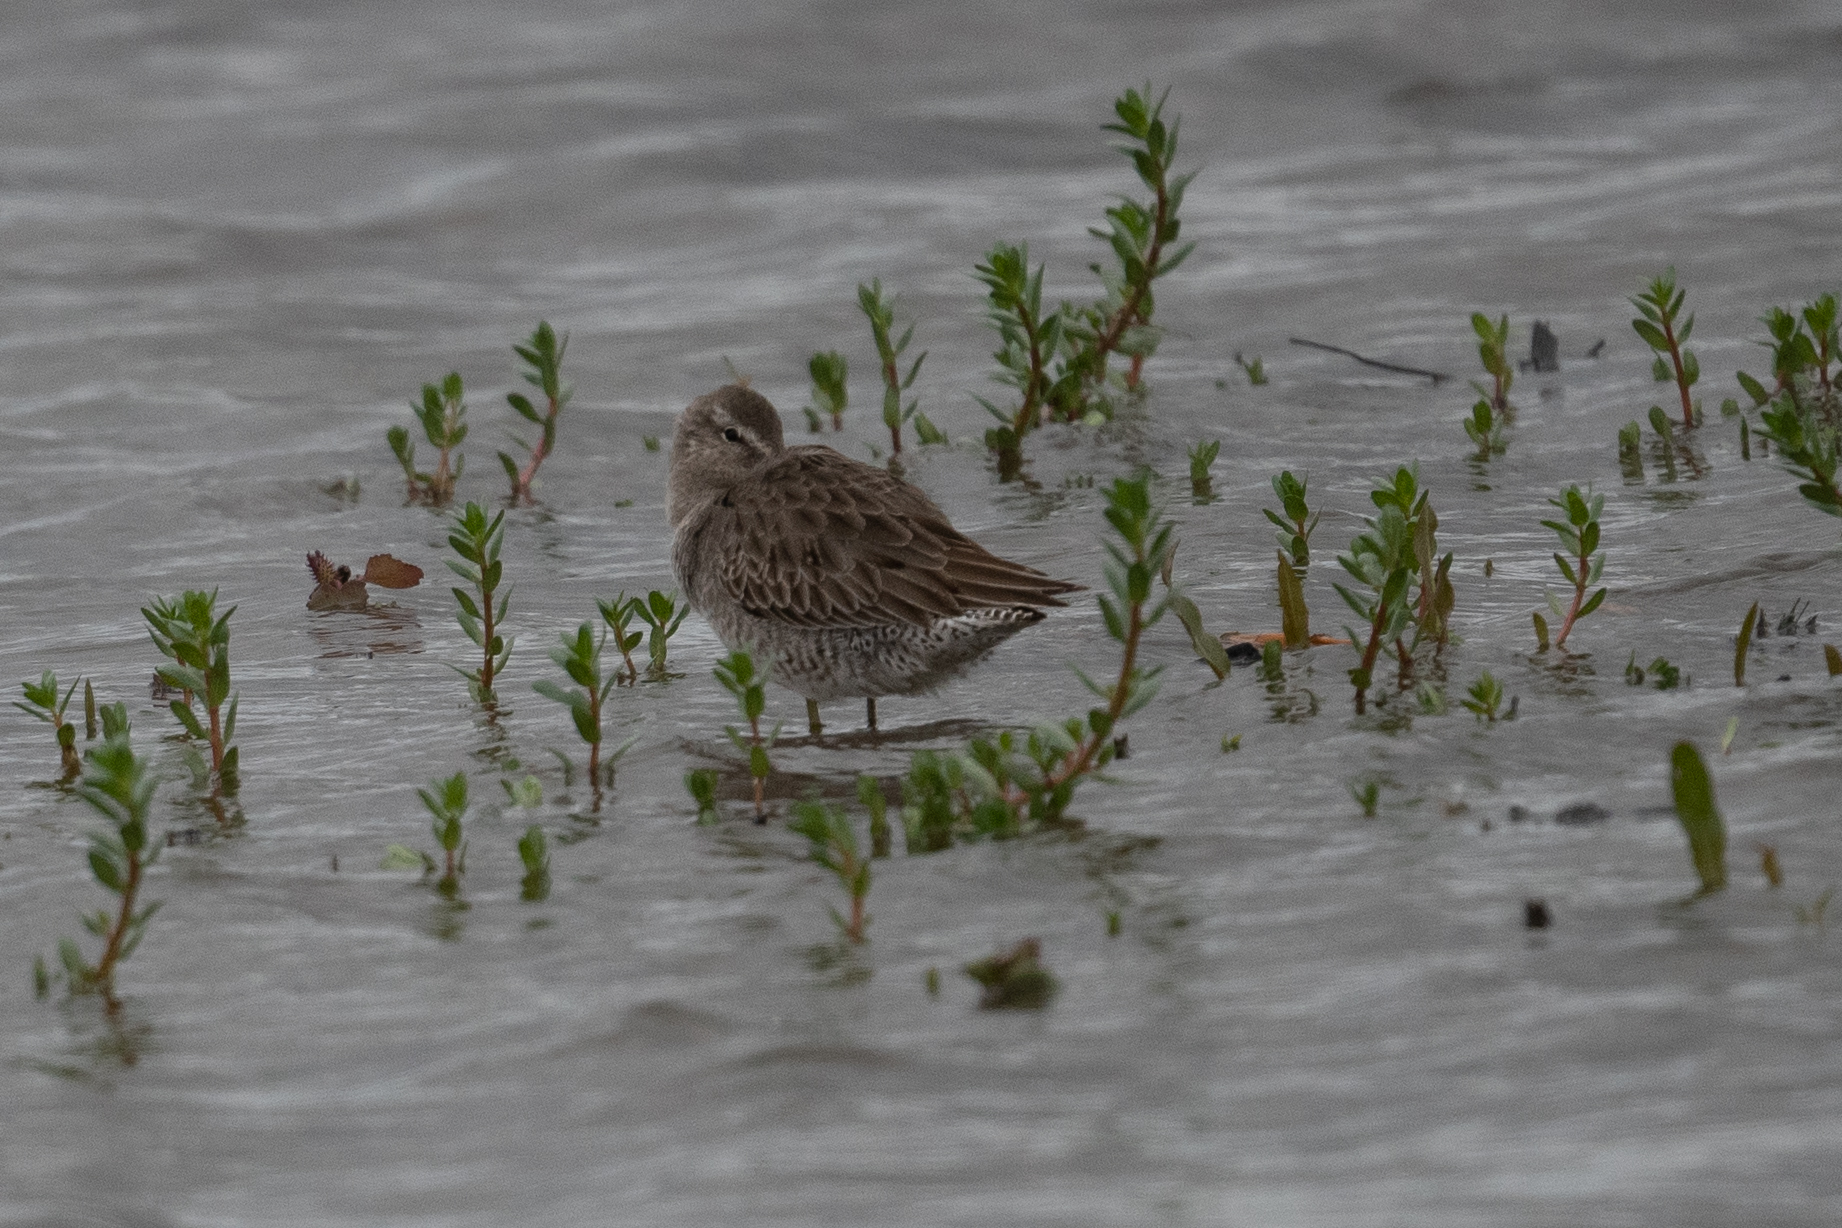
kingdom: Animalia
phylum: Chordata
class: Aves
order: Charadriiformes
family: Scolopacidae
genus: Limnodromus
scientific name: Limnodromus scolopaceus
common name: Long-billed dowitcher
